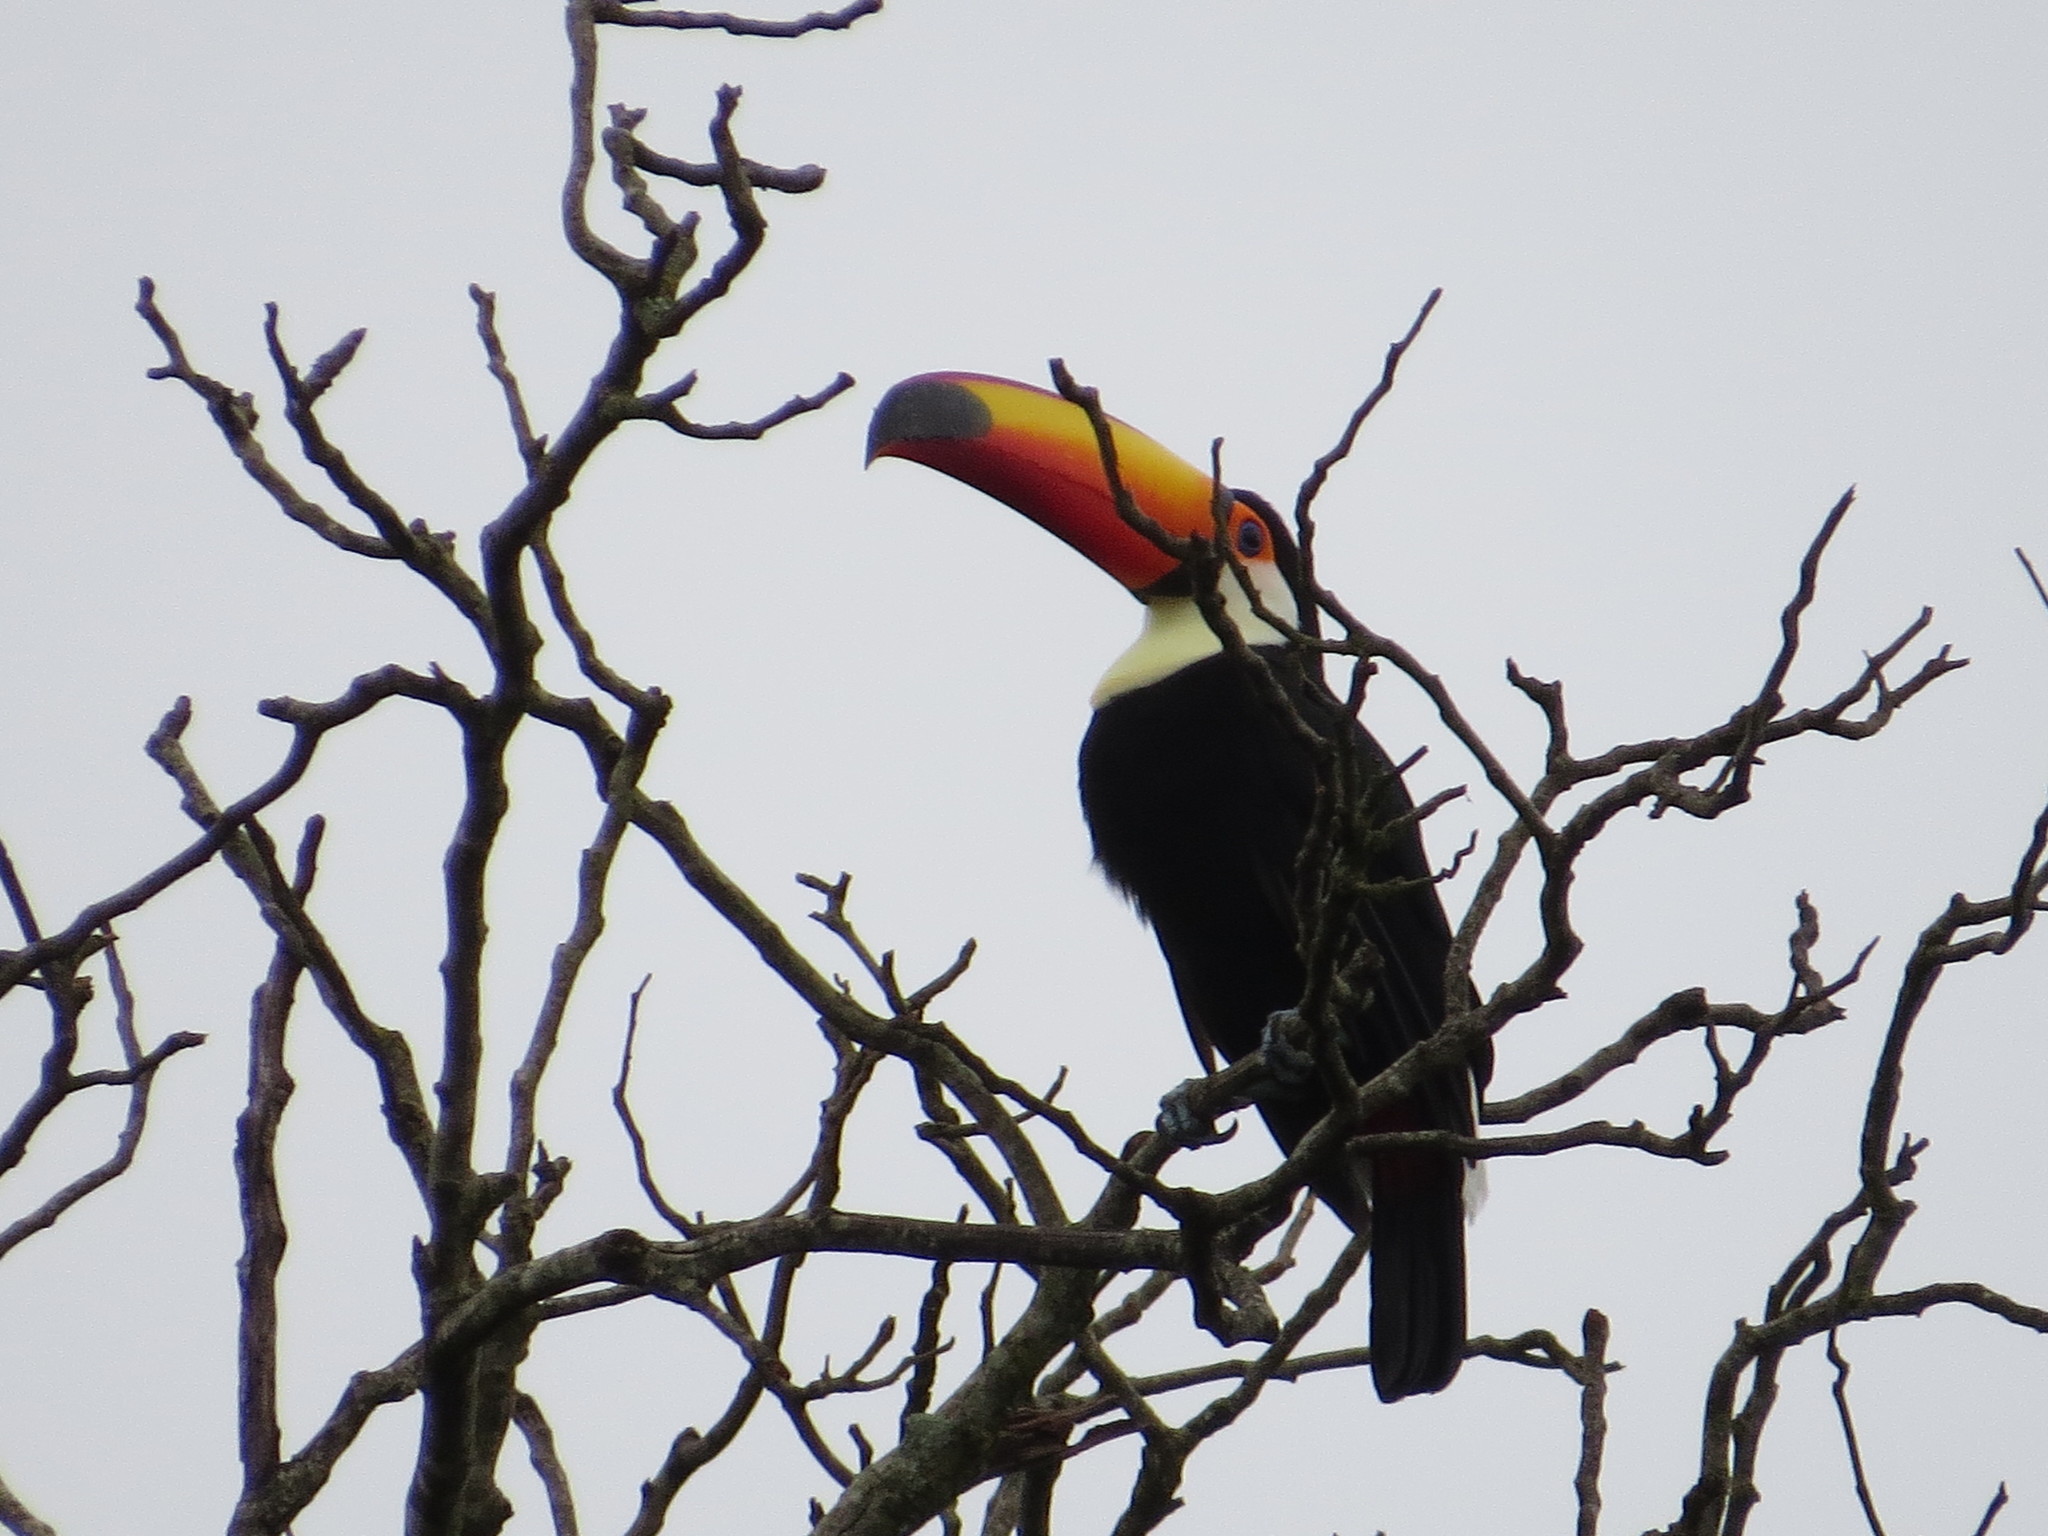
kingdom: Animalia
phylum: Chordata
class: Aves
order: Piciformes
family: Ramphastidae
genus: Ramphastos
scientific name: Ramphastos toco
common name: Toco toucan
